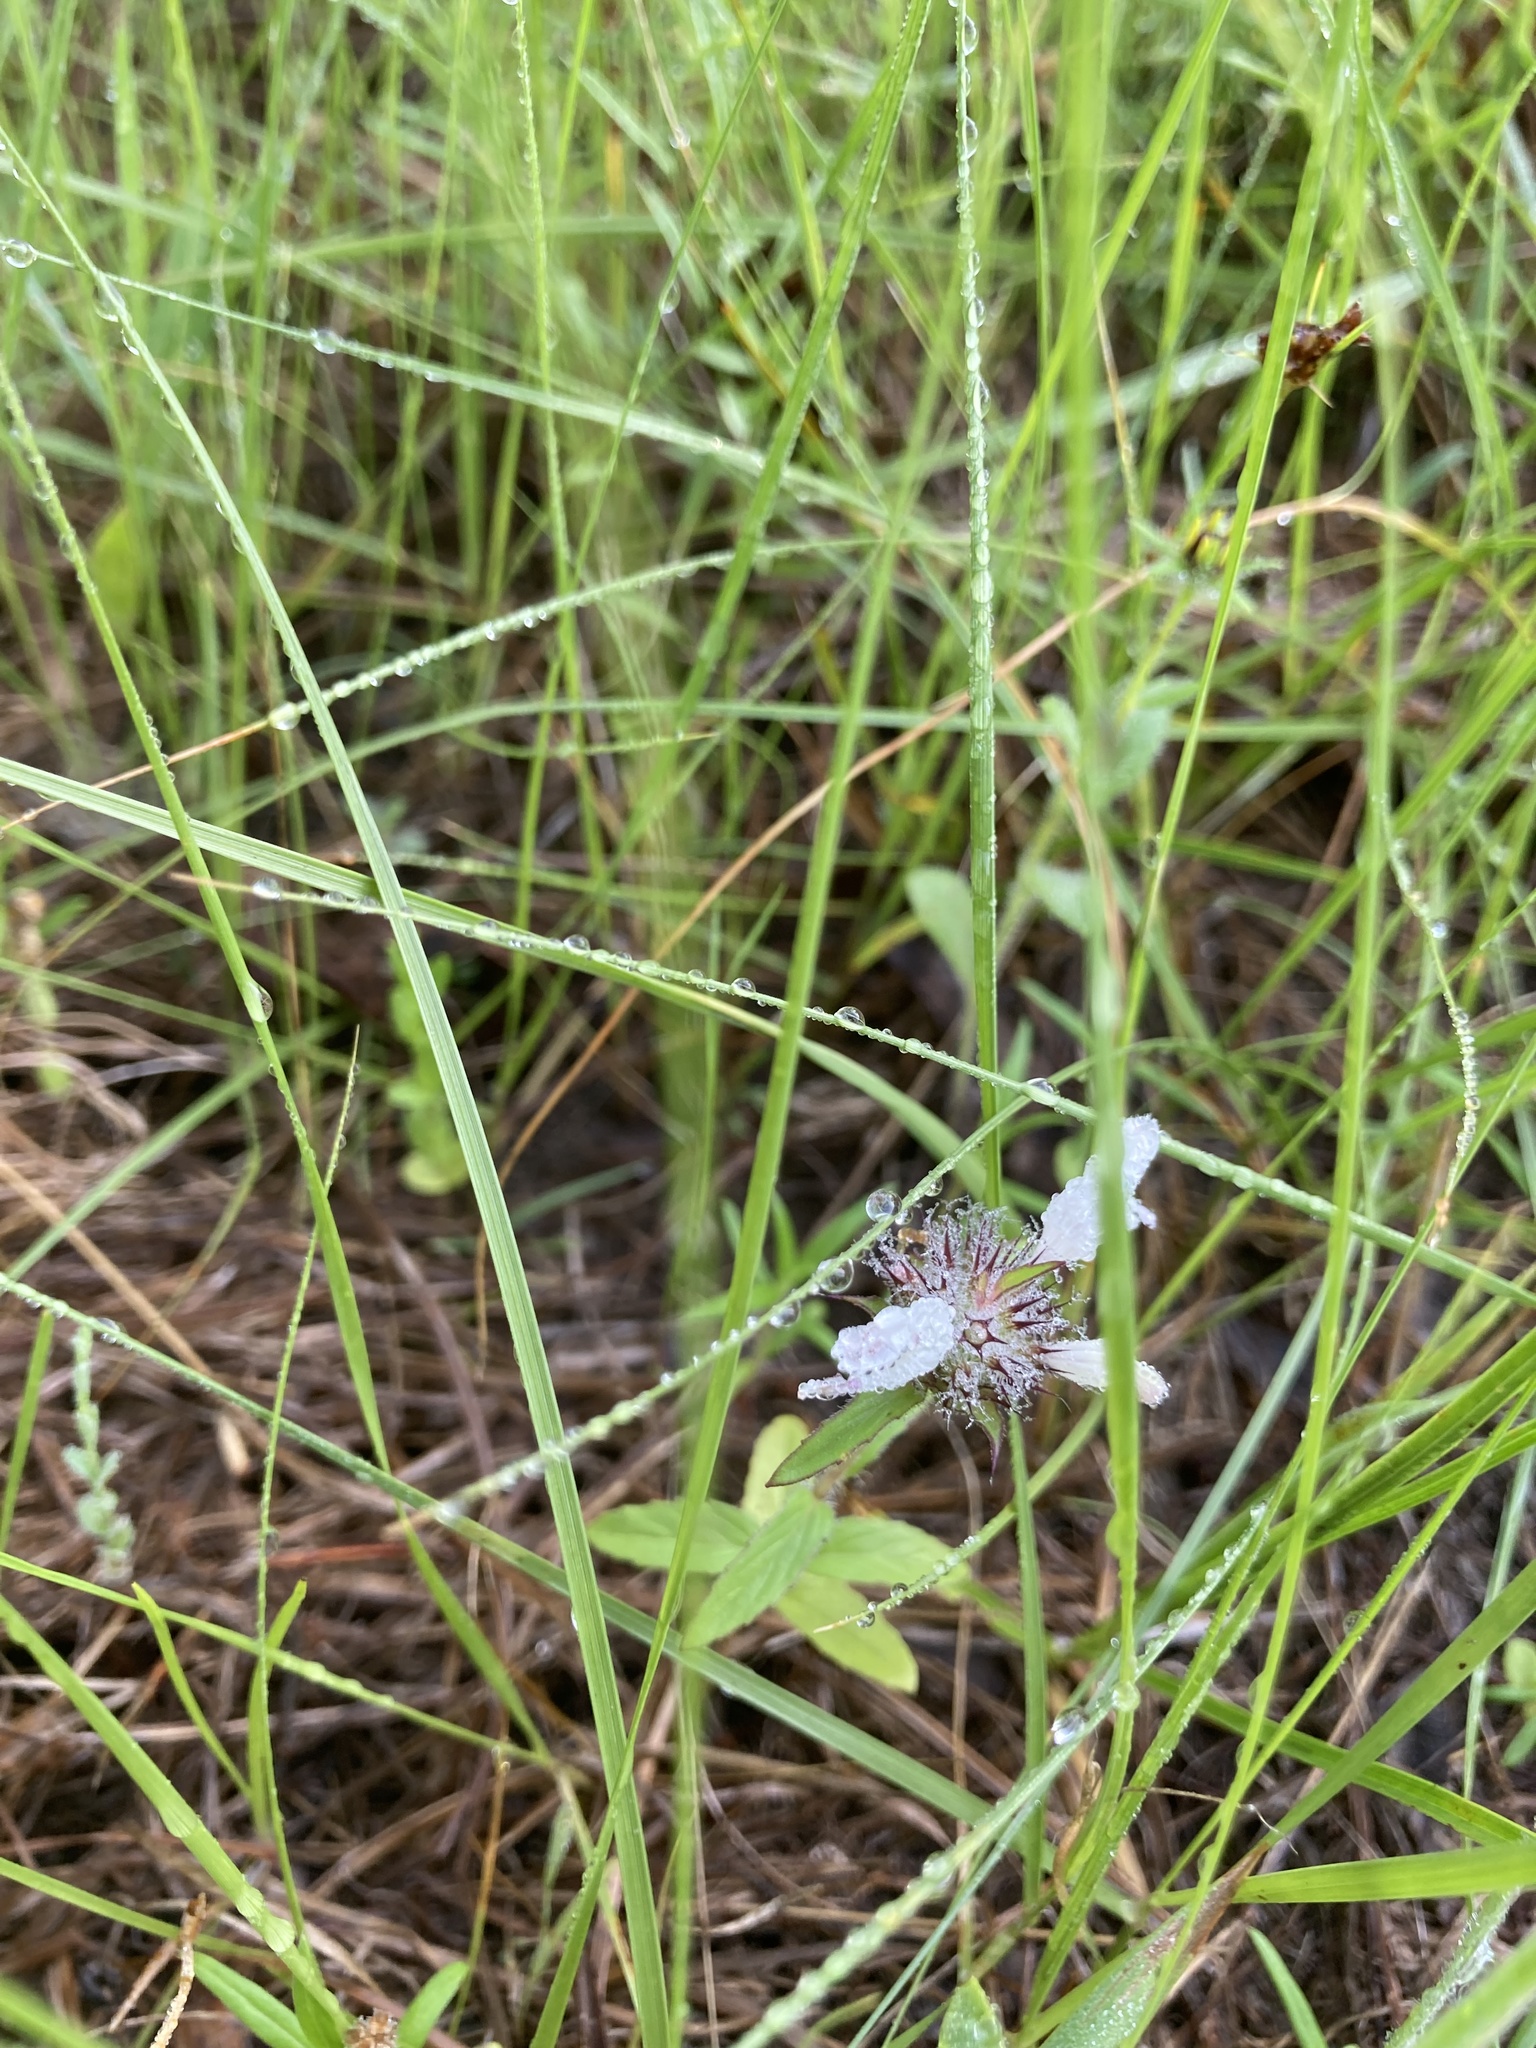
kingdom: Plantae
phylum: Tracheophyta
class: Magnoliopsida
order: Lamiales
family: Lamiaceae
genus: Monarda
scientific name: Monarda clinopodioides
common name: Basil beebalm
